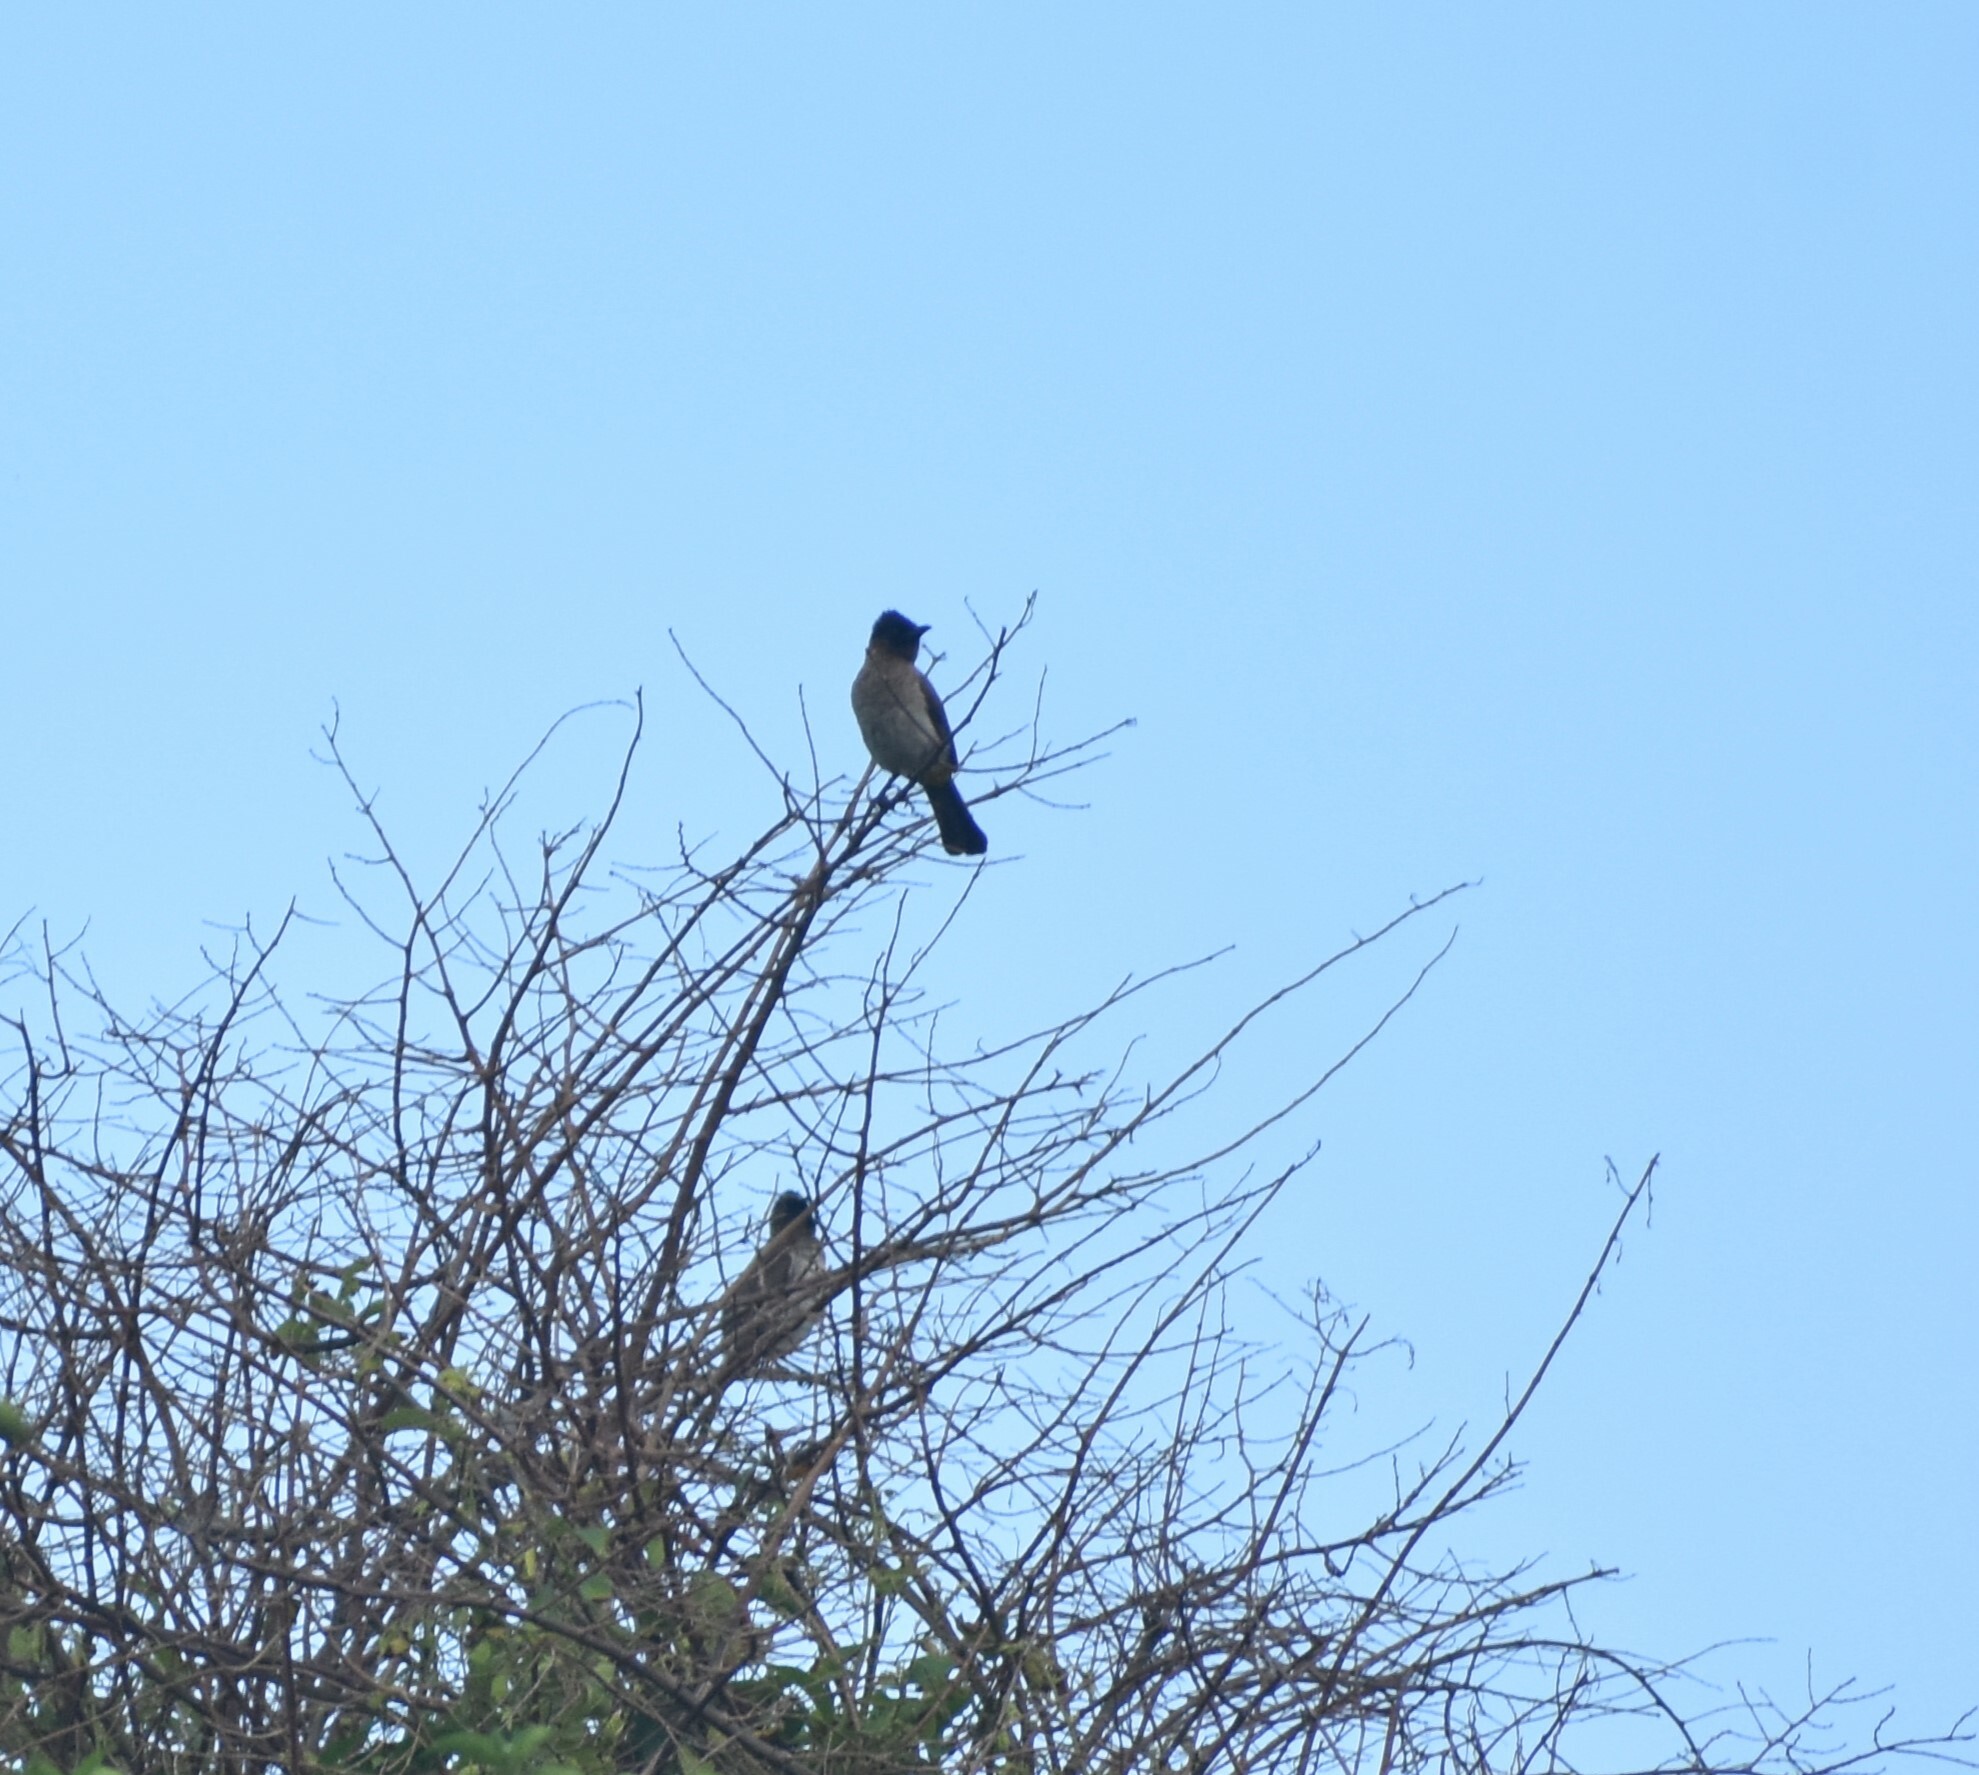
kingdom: Animalia
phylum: Chordata
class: Aves
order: Passeriformes
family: Pycnonotidae
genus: Pycnonotus
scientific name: Pycnonotus barbatus
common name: Common bulbul
